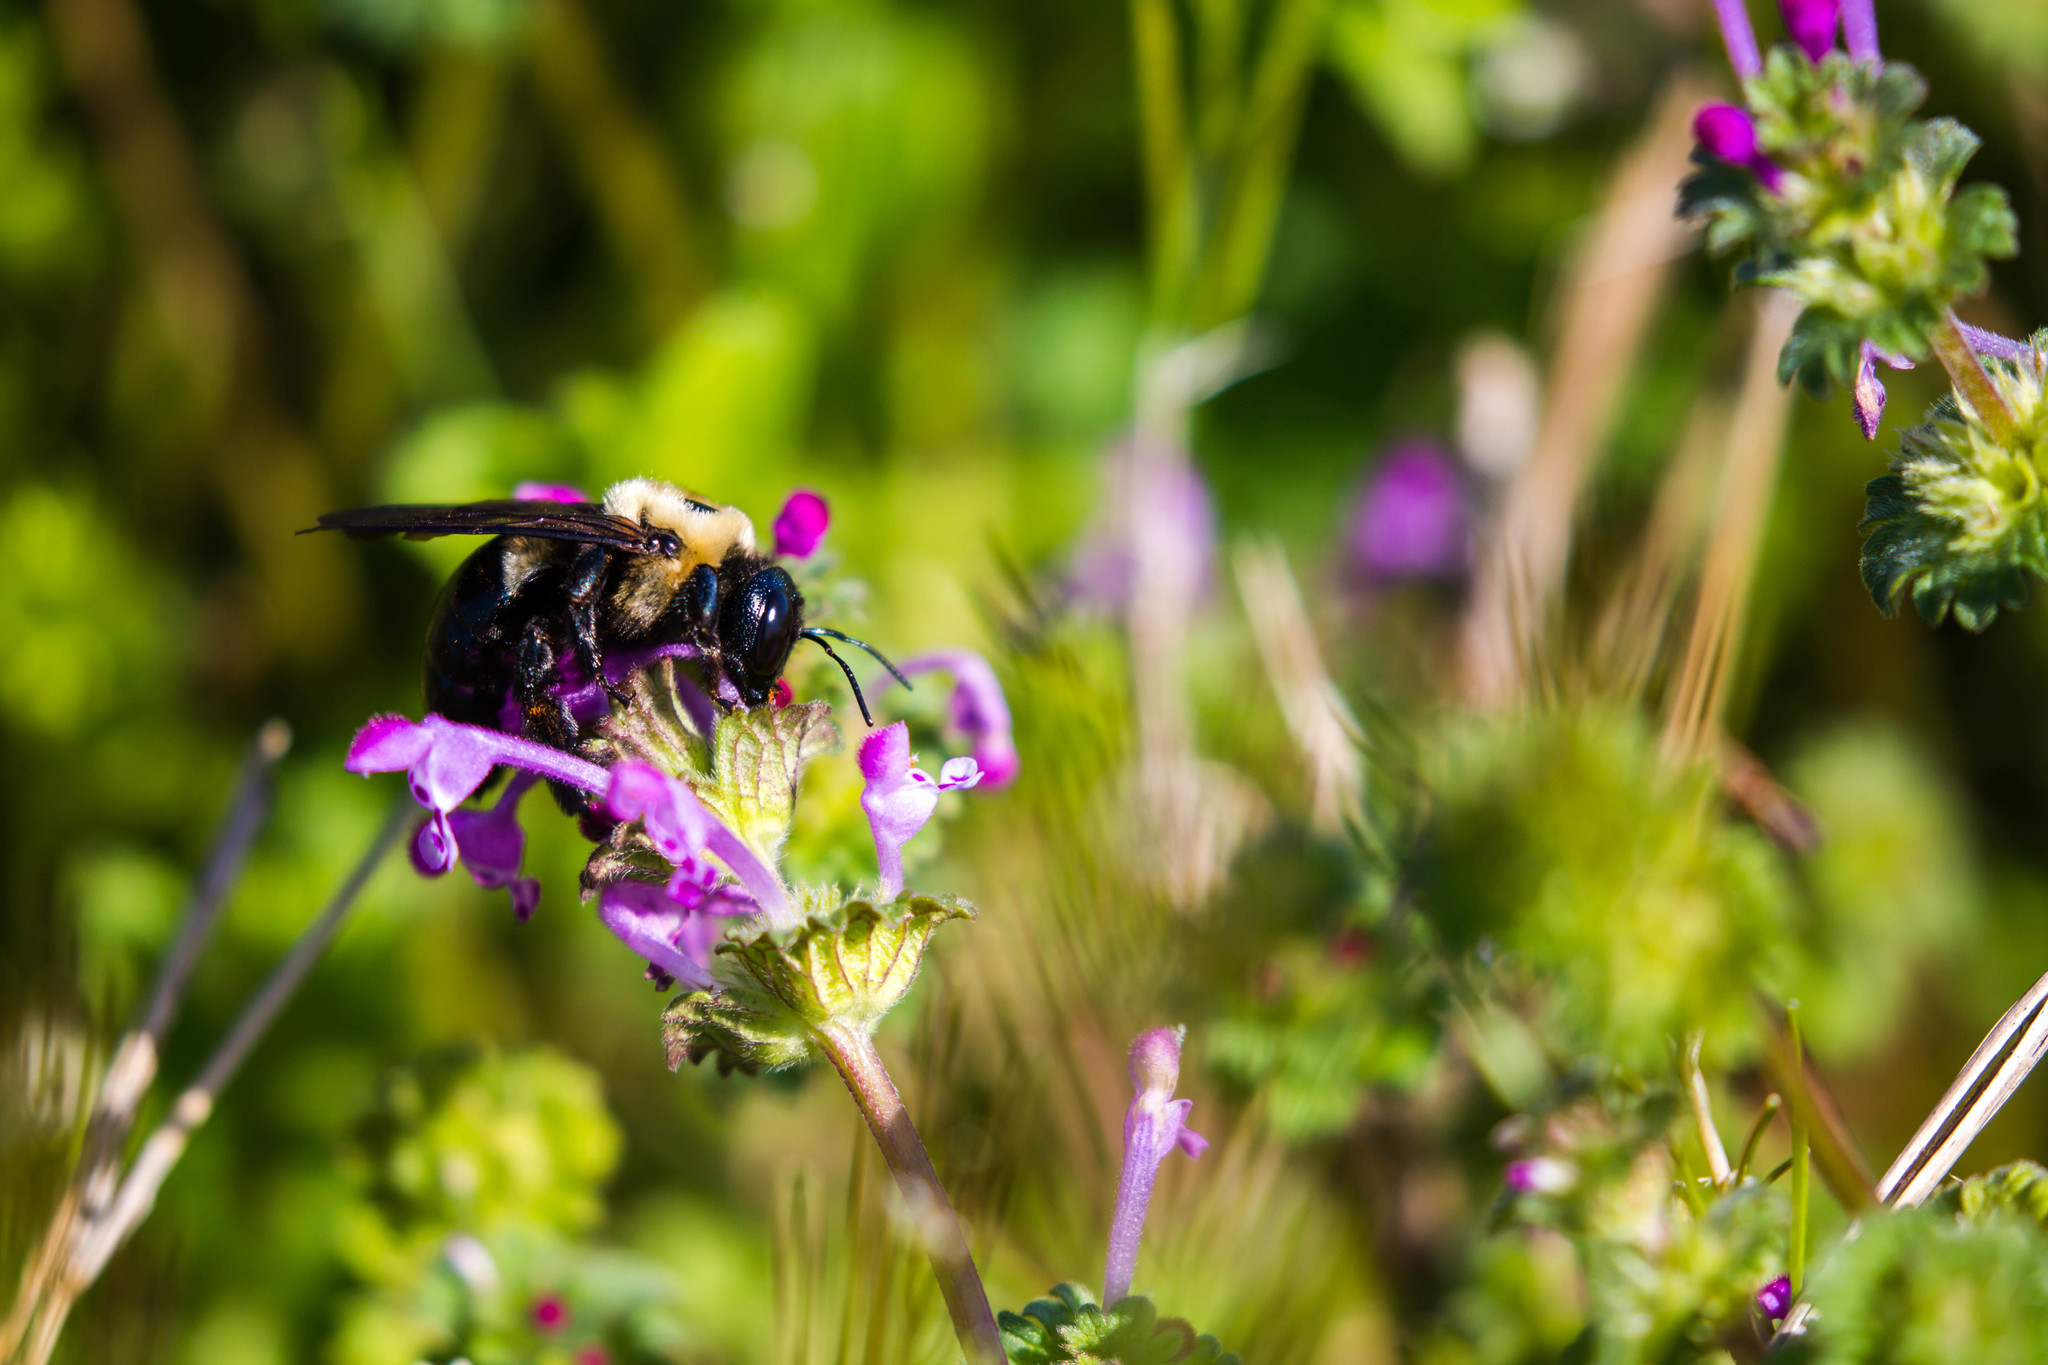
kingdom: Animalia
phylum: Arthropoda
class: Insecta
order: Hymenoptera
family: Apidae
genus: Xylocopa
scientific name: Xylocopa virginica
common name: Carpenter bee
